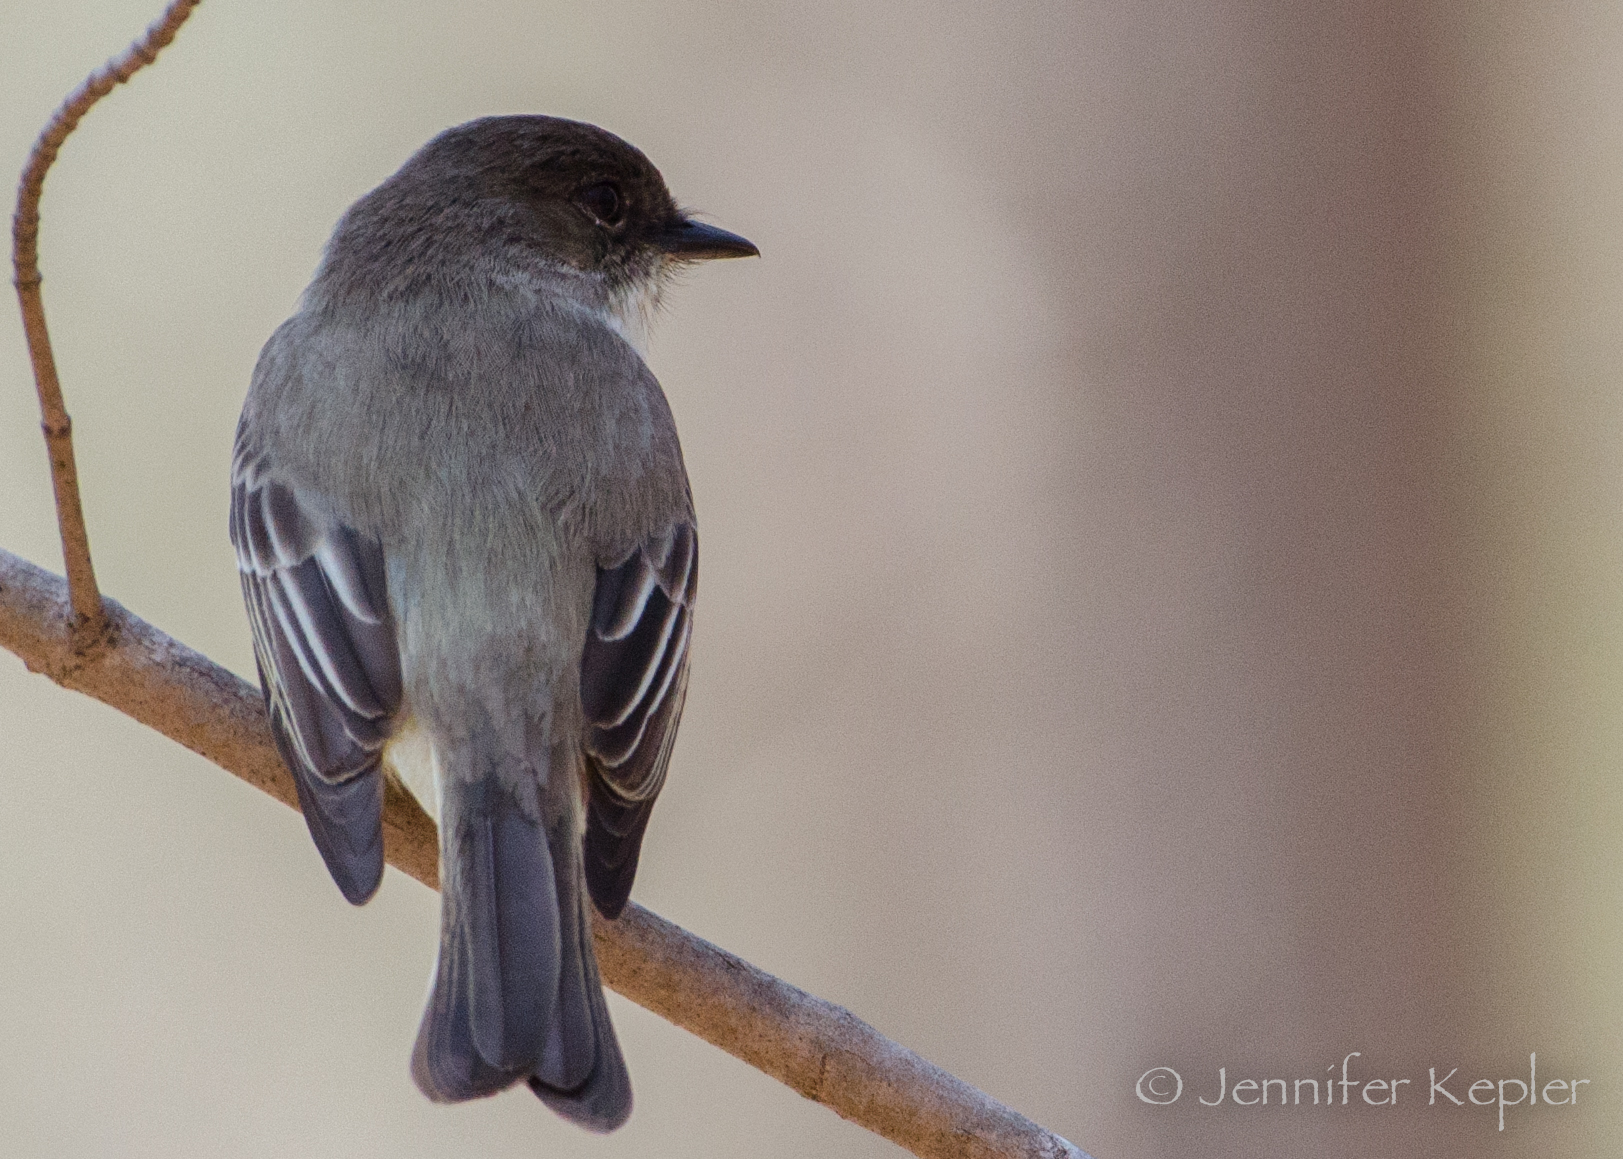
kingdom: Animalia
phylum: Chordata
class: Aves
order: Passeriformes
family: Tyrannidae
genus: Sayornis
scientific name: Sayornis phoebe
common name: Eastern phoebe
